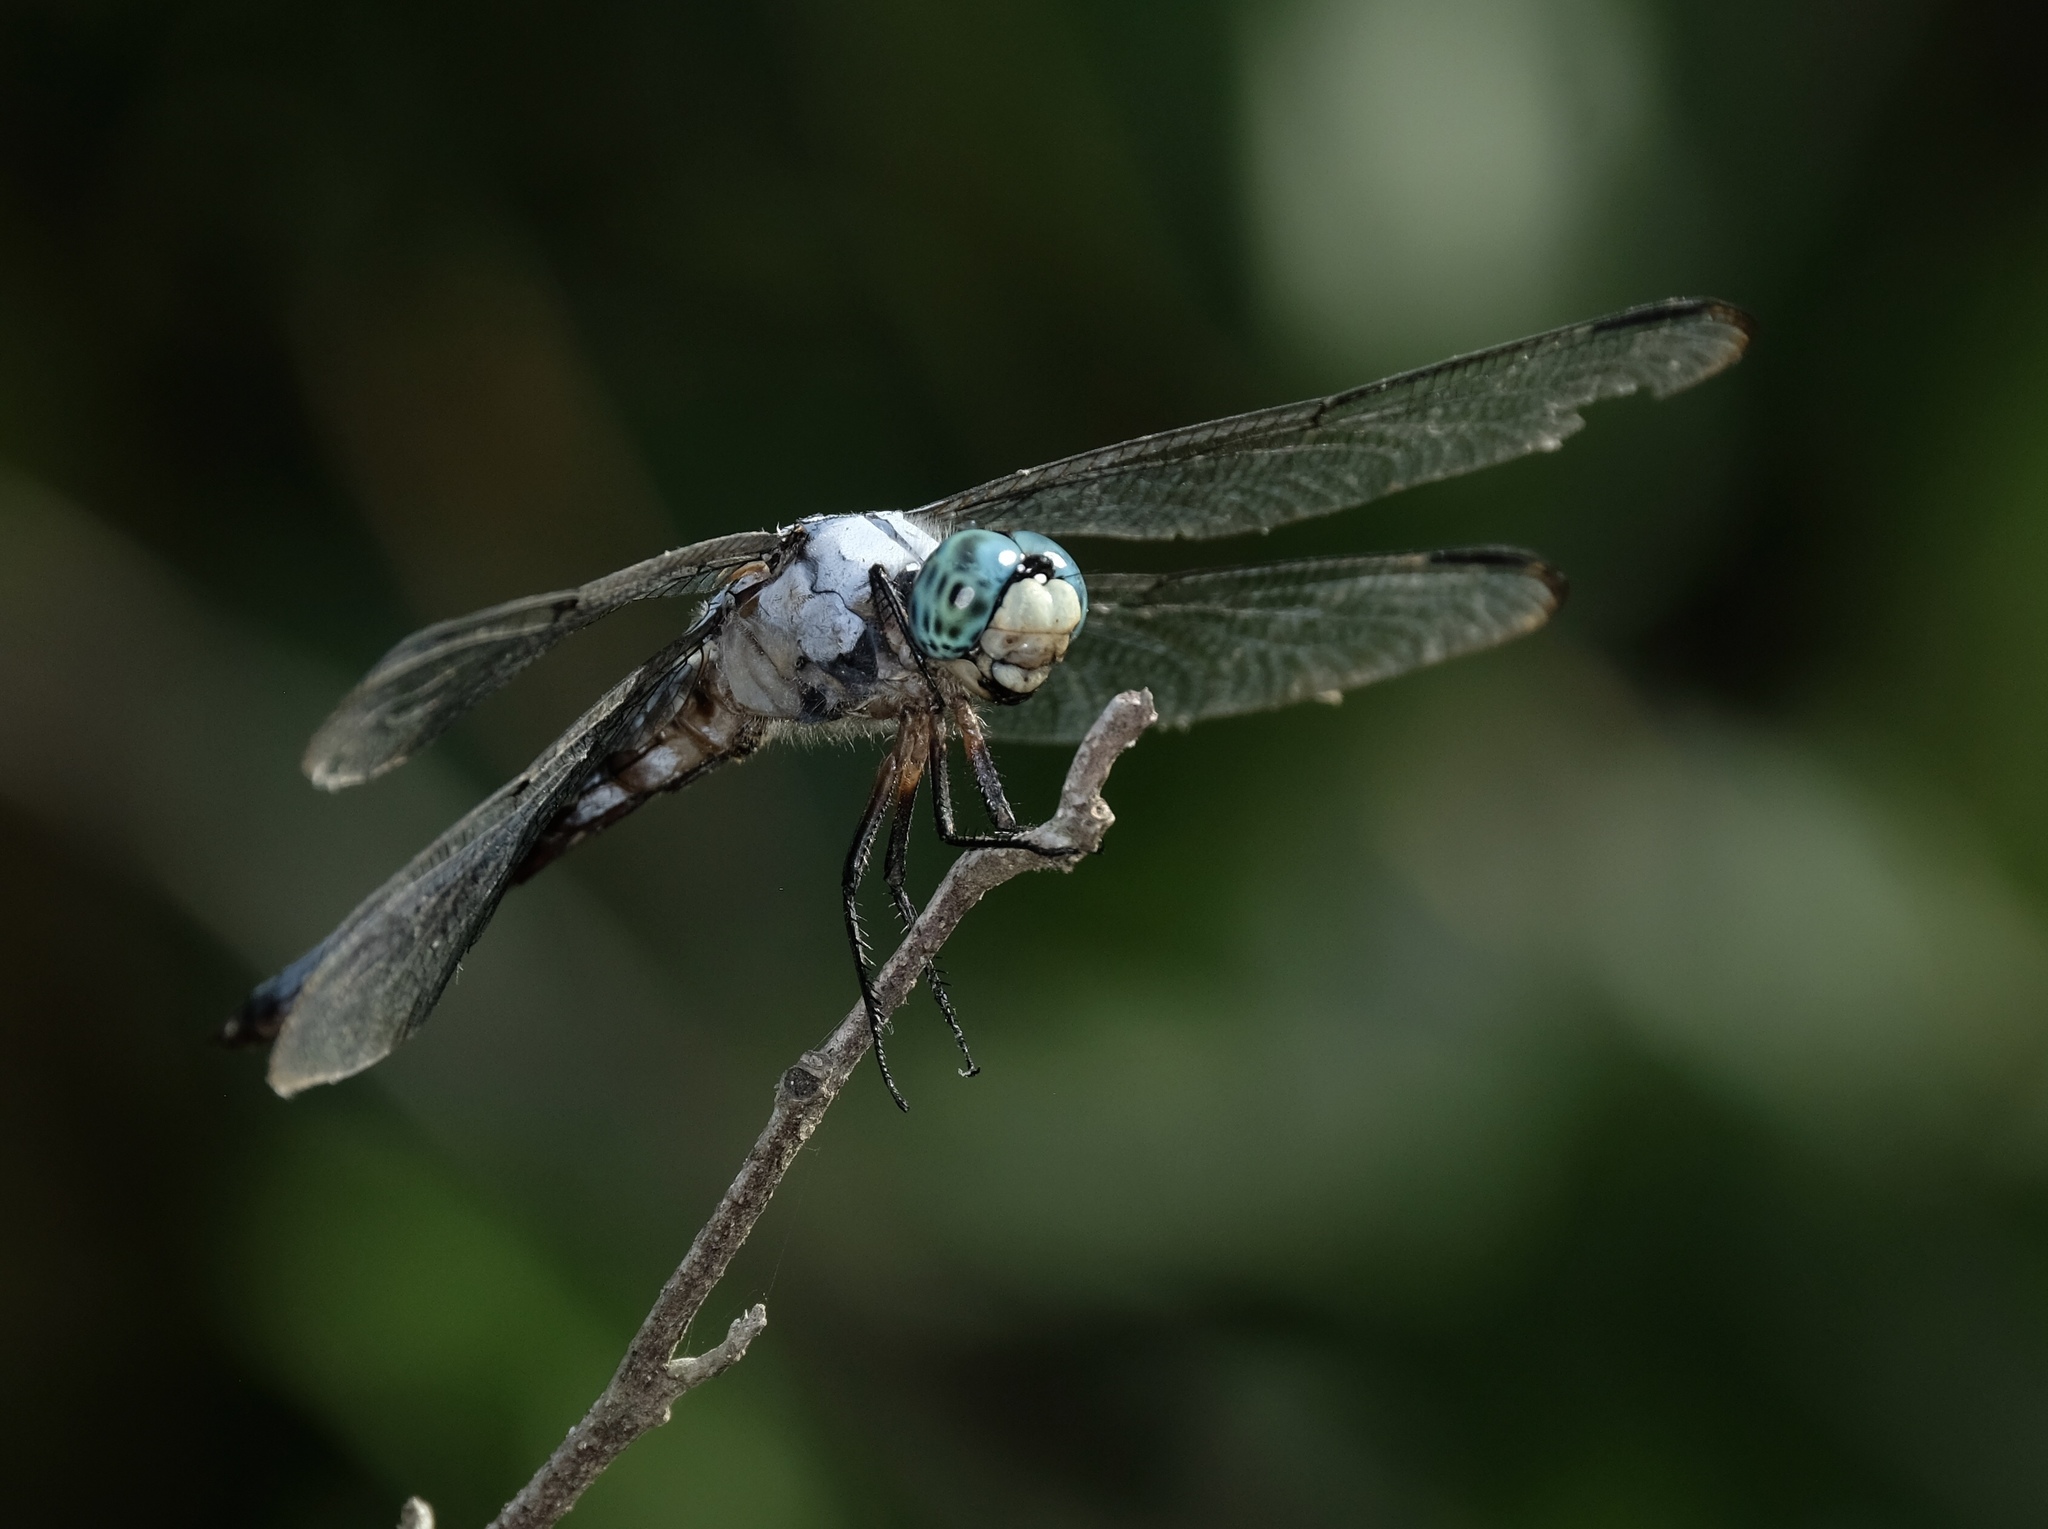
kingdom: Animalia
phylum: Arthropoda
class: Insecta
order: Odonata
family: Libellulidae
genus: Libellula
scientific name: Libellula vibrans
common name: Great blue skimmer
